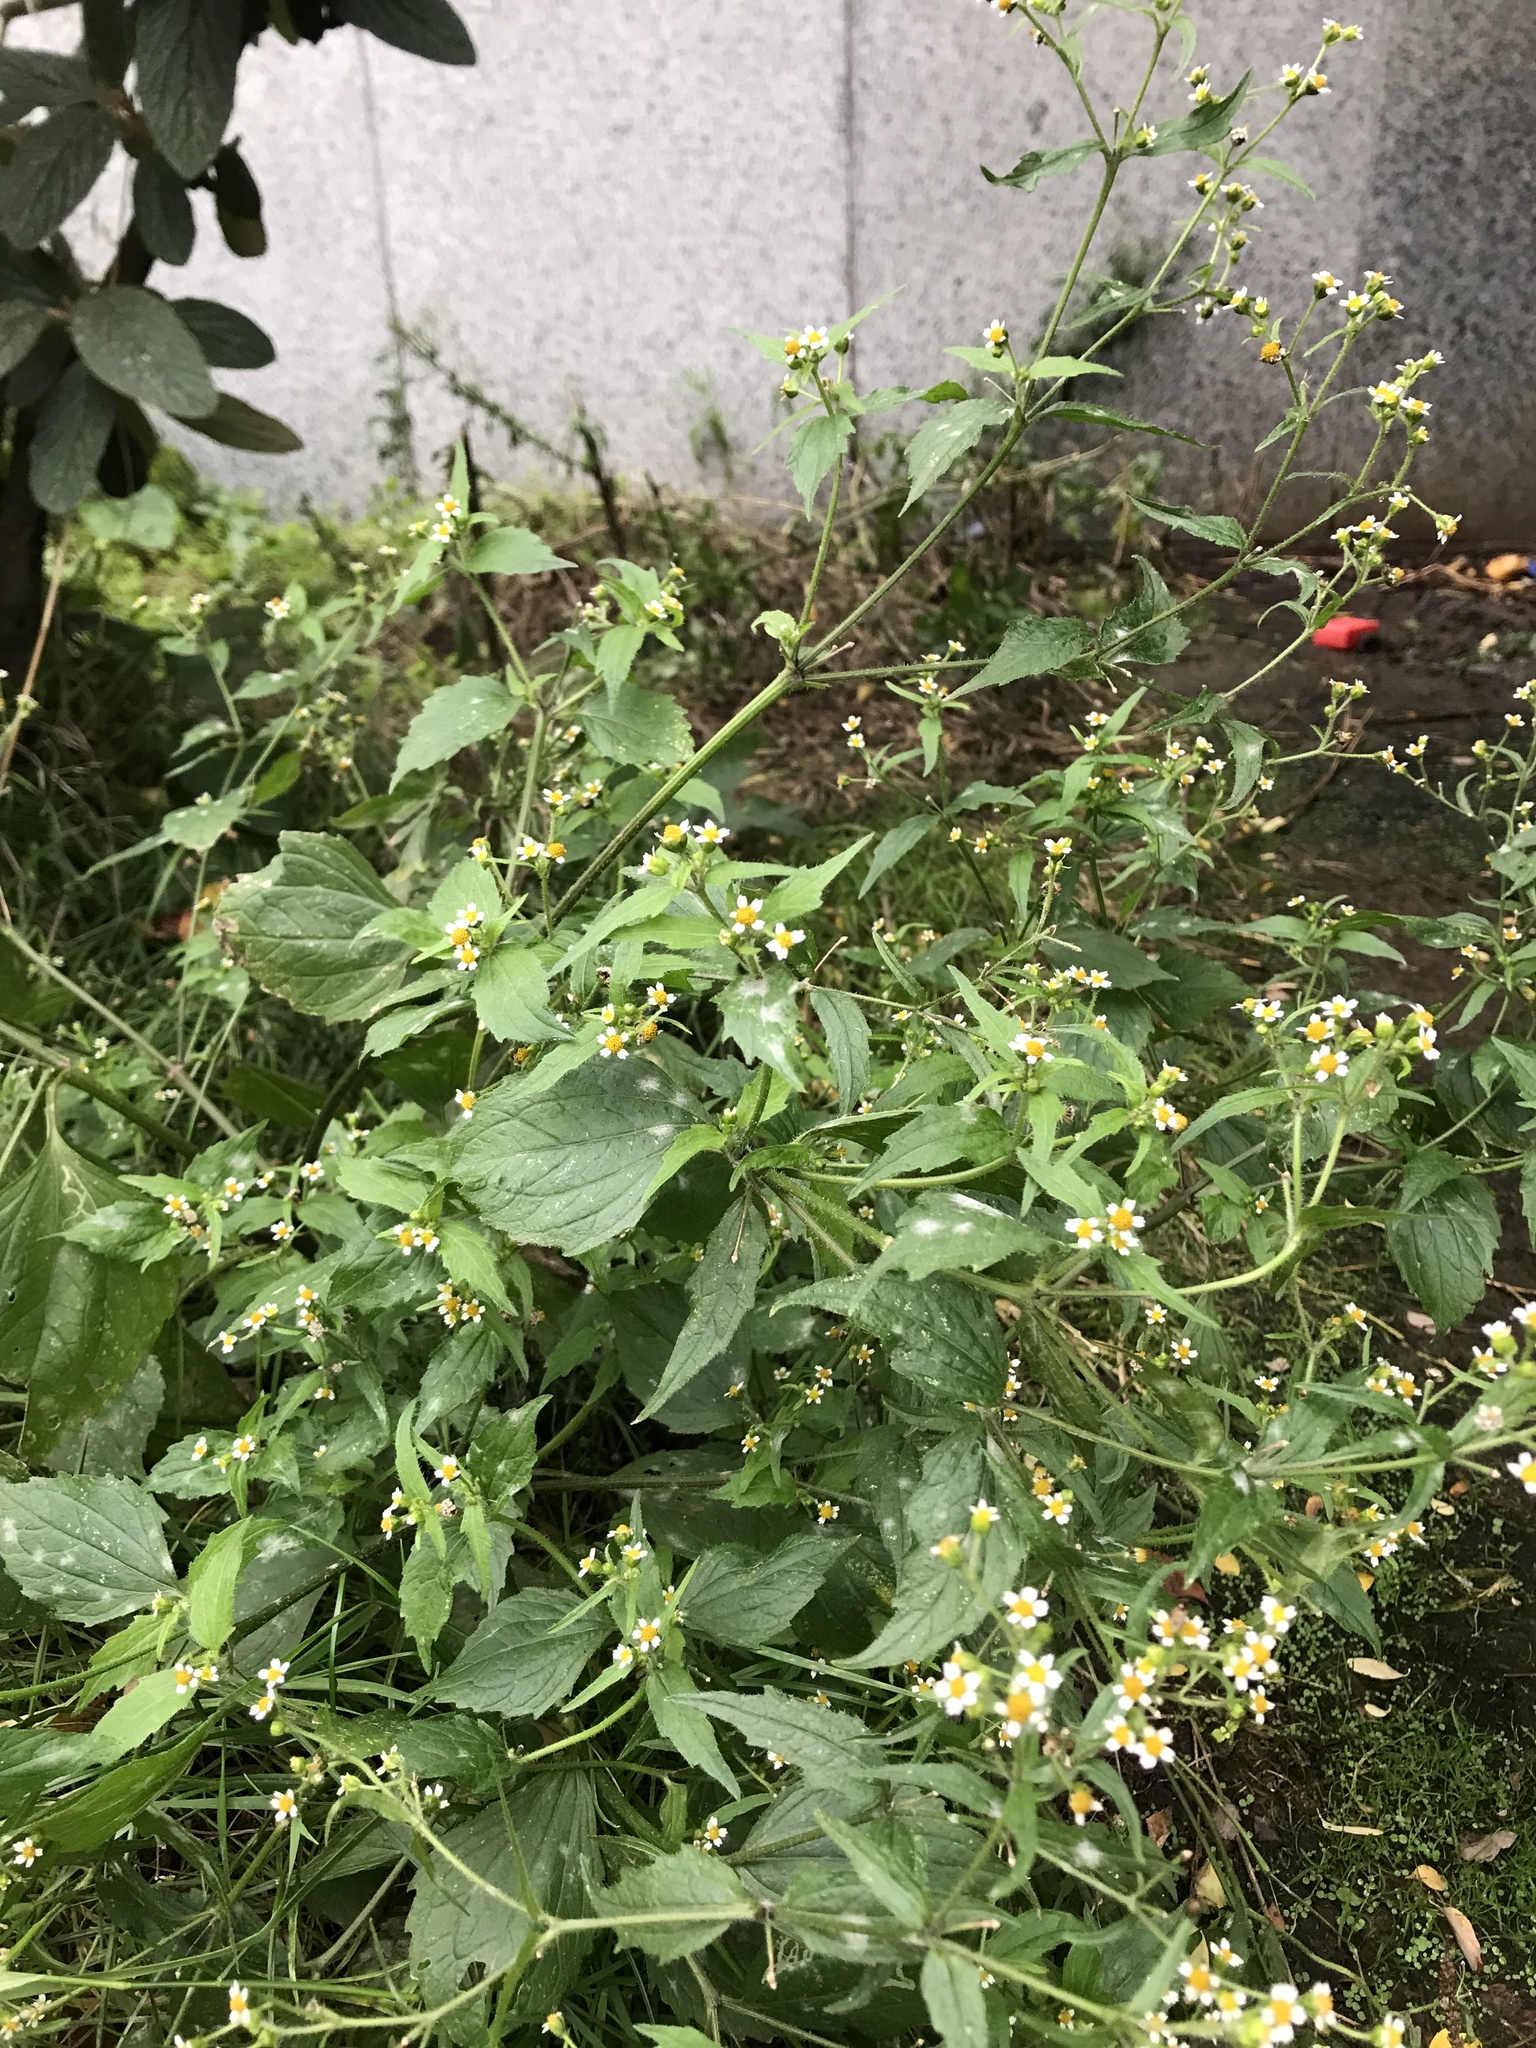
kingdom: Plantae
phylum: Tracheophyta
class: Magnoliopsida
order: Asterales
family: Asteraceae
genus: Galinsoga
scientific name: Galinsoga quadriradiata
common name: Shaggy soldier
